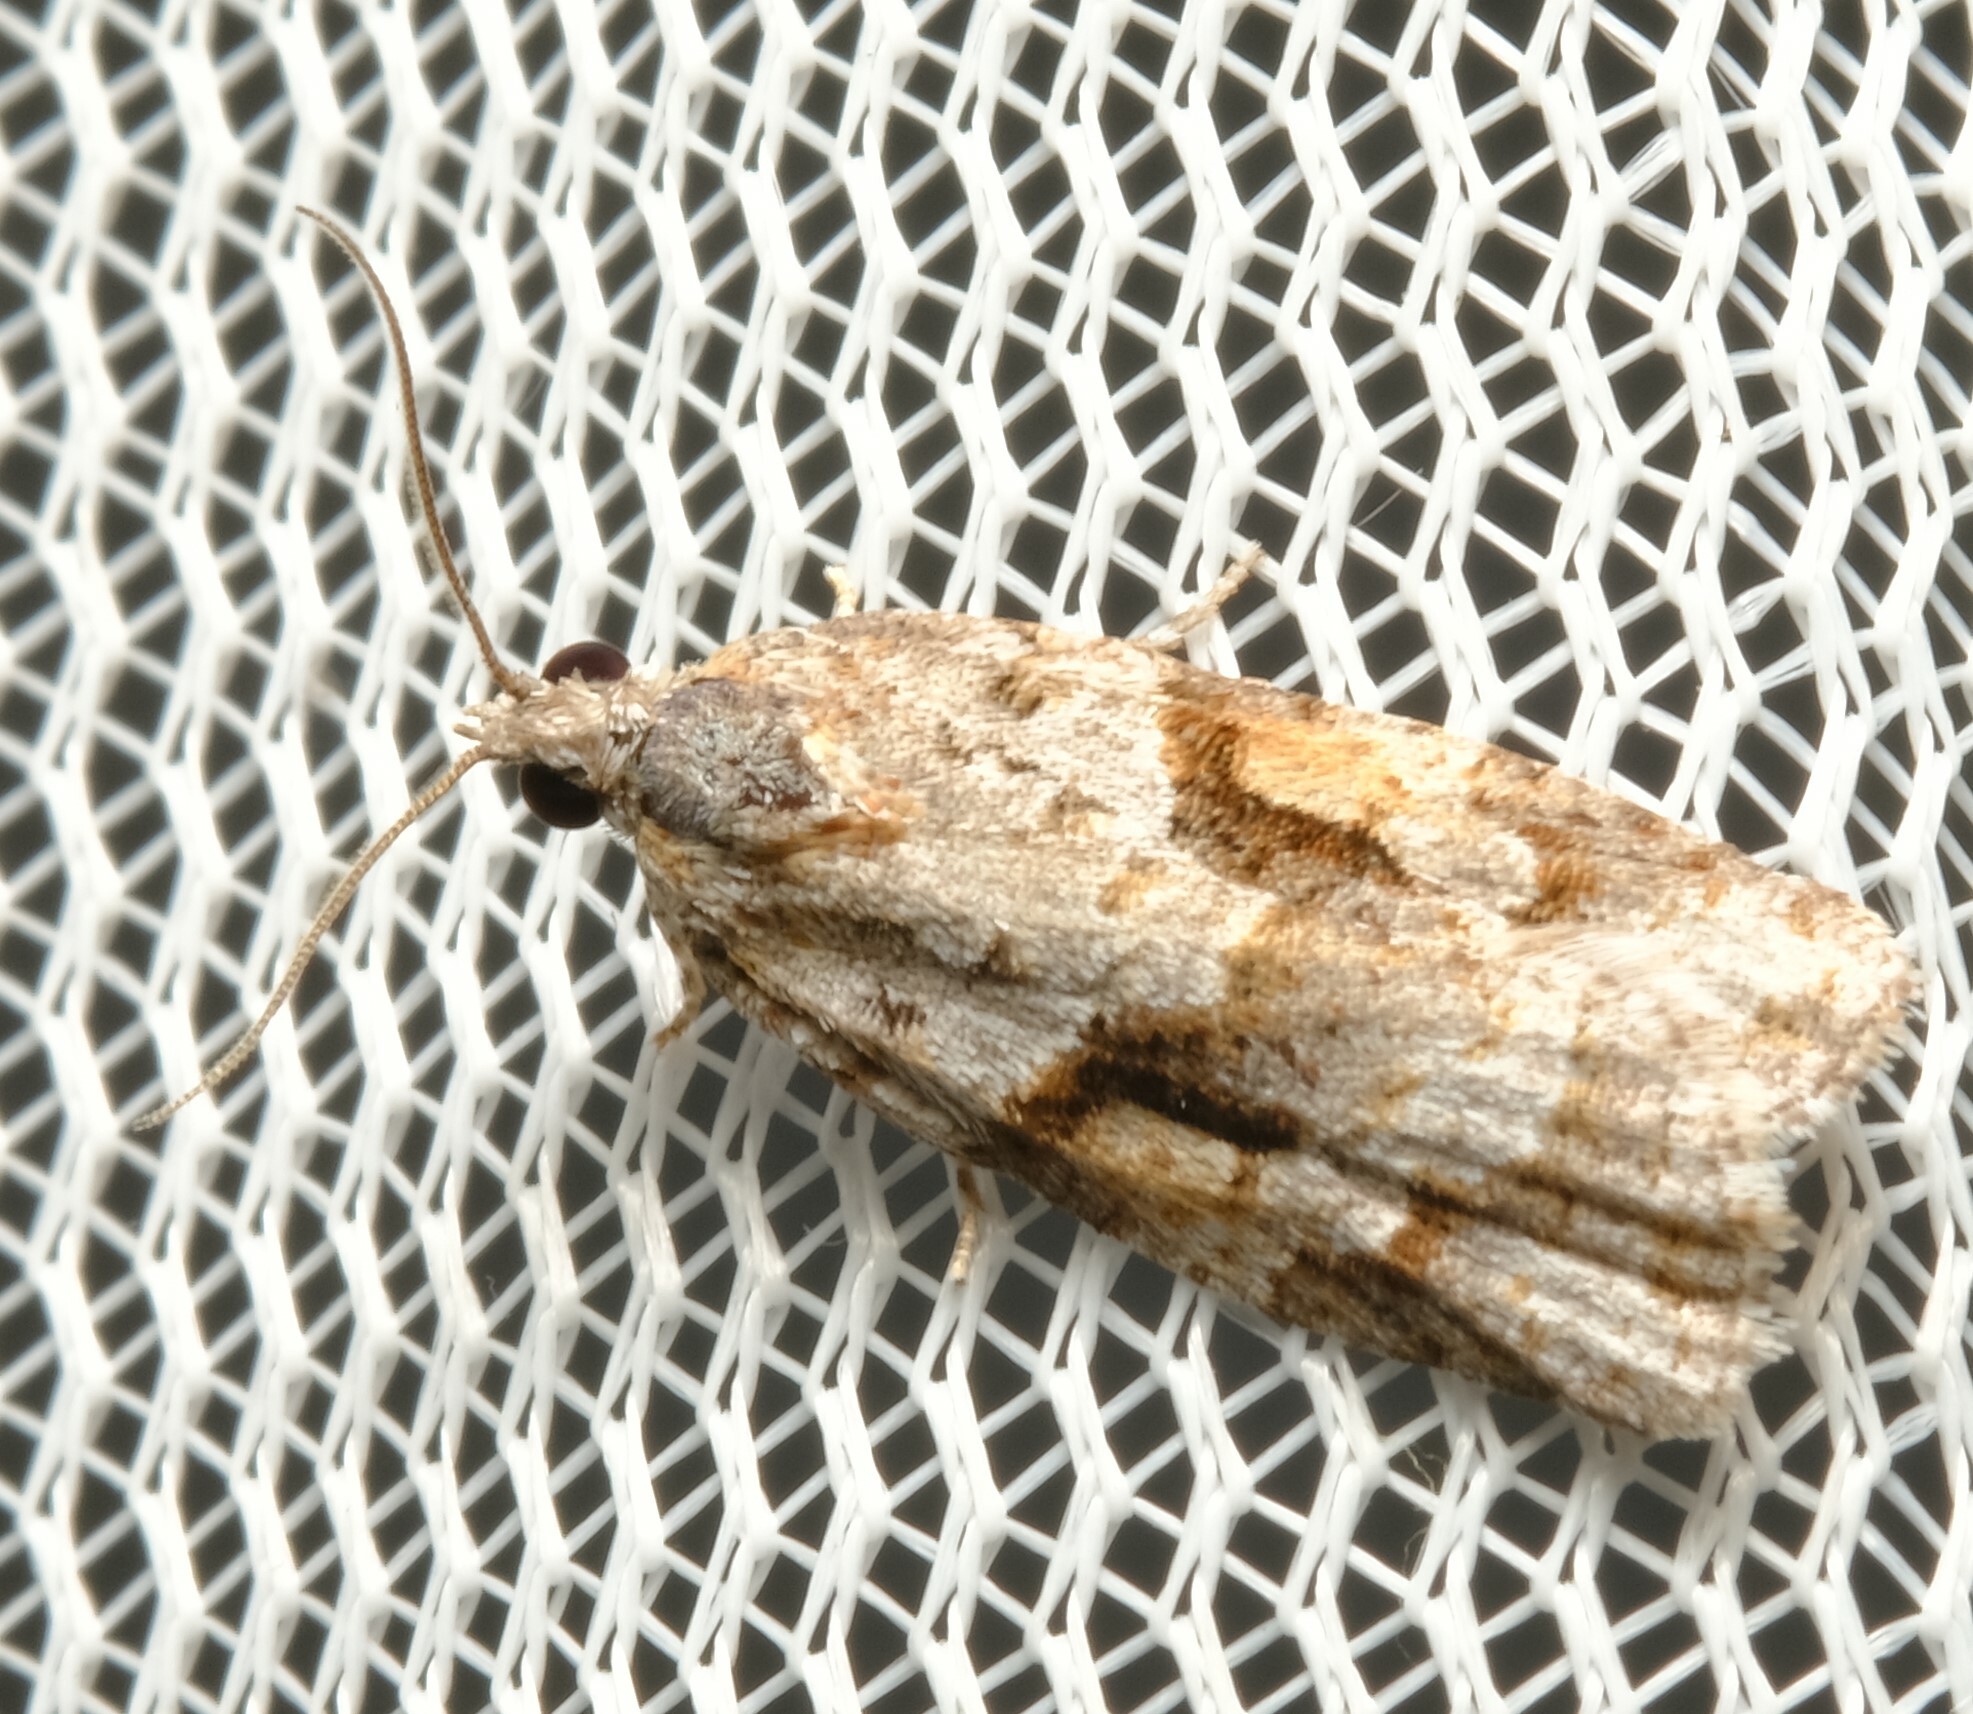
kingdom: Animalia
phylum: Arthropoda
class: Insecta
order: Lepidoptera
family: Tortricidae
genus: Acropolitis
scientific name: Acropolitis rudisana
